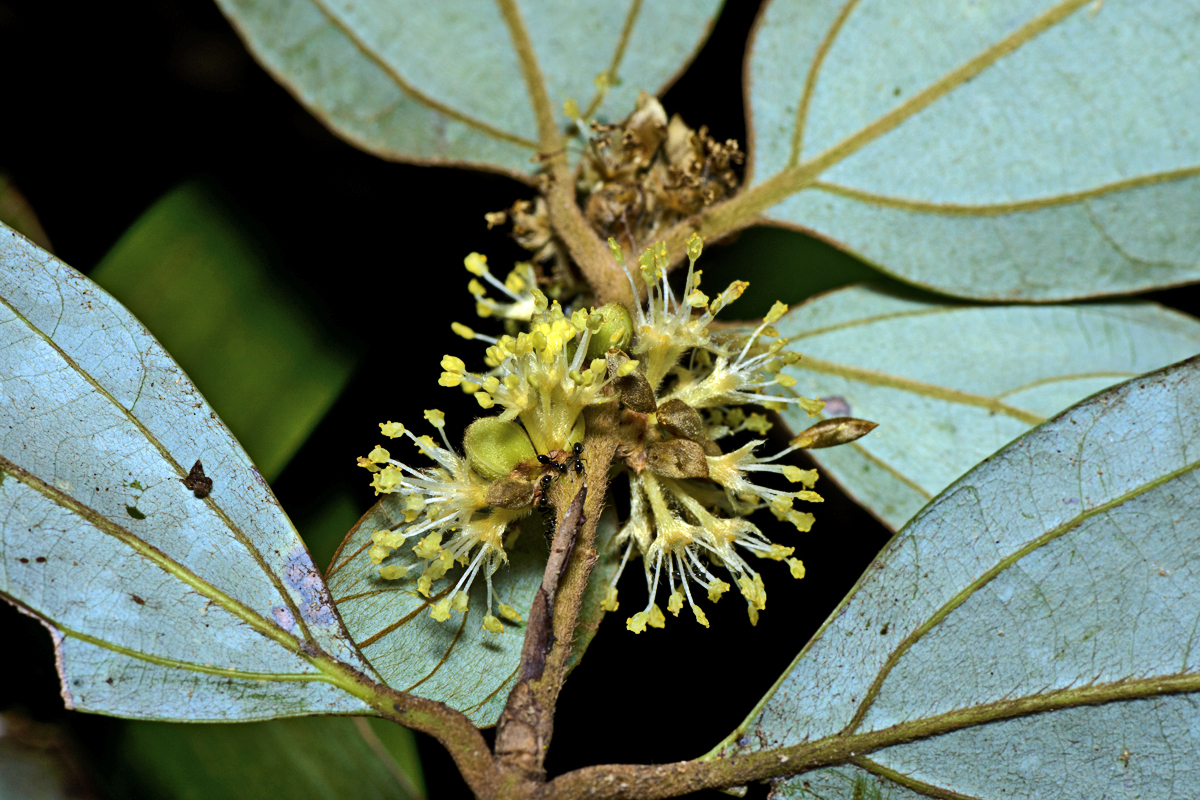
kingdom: Plantae
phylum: Tracheophyta
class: Magnoliopsida
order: Laurales
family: Lauraceae
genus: Neolitsea
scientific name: Neolitsea dealbata
